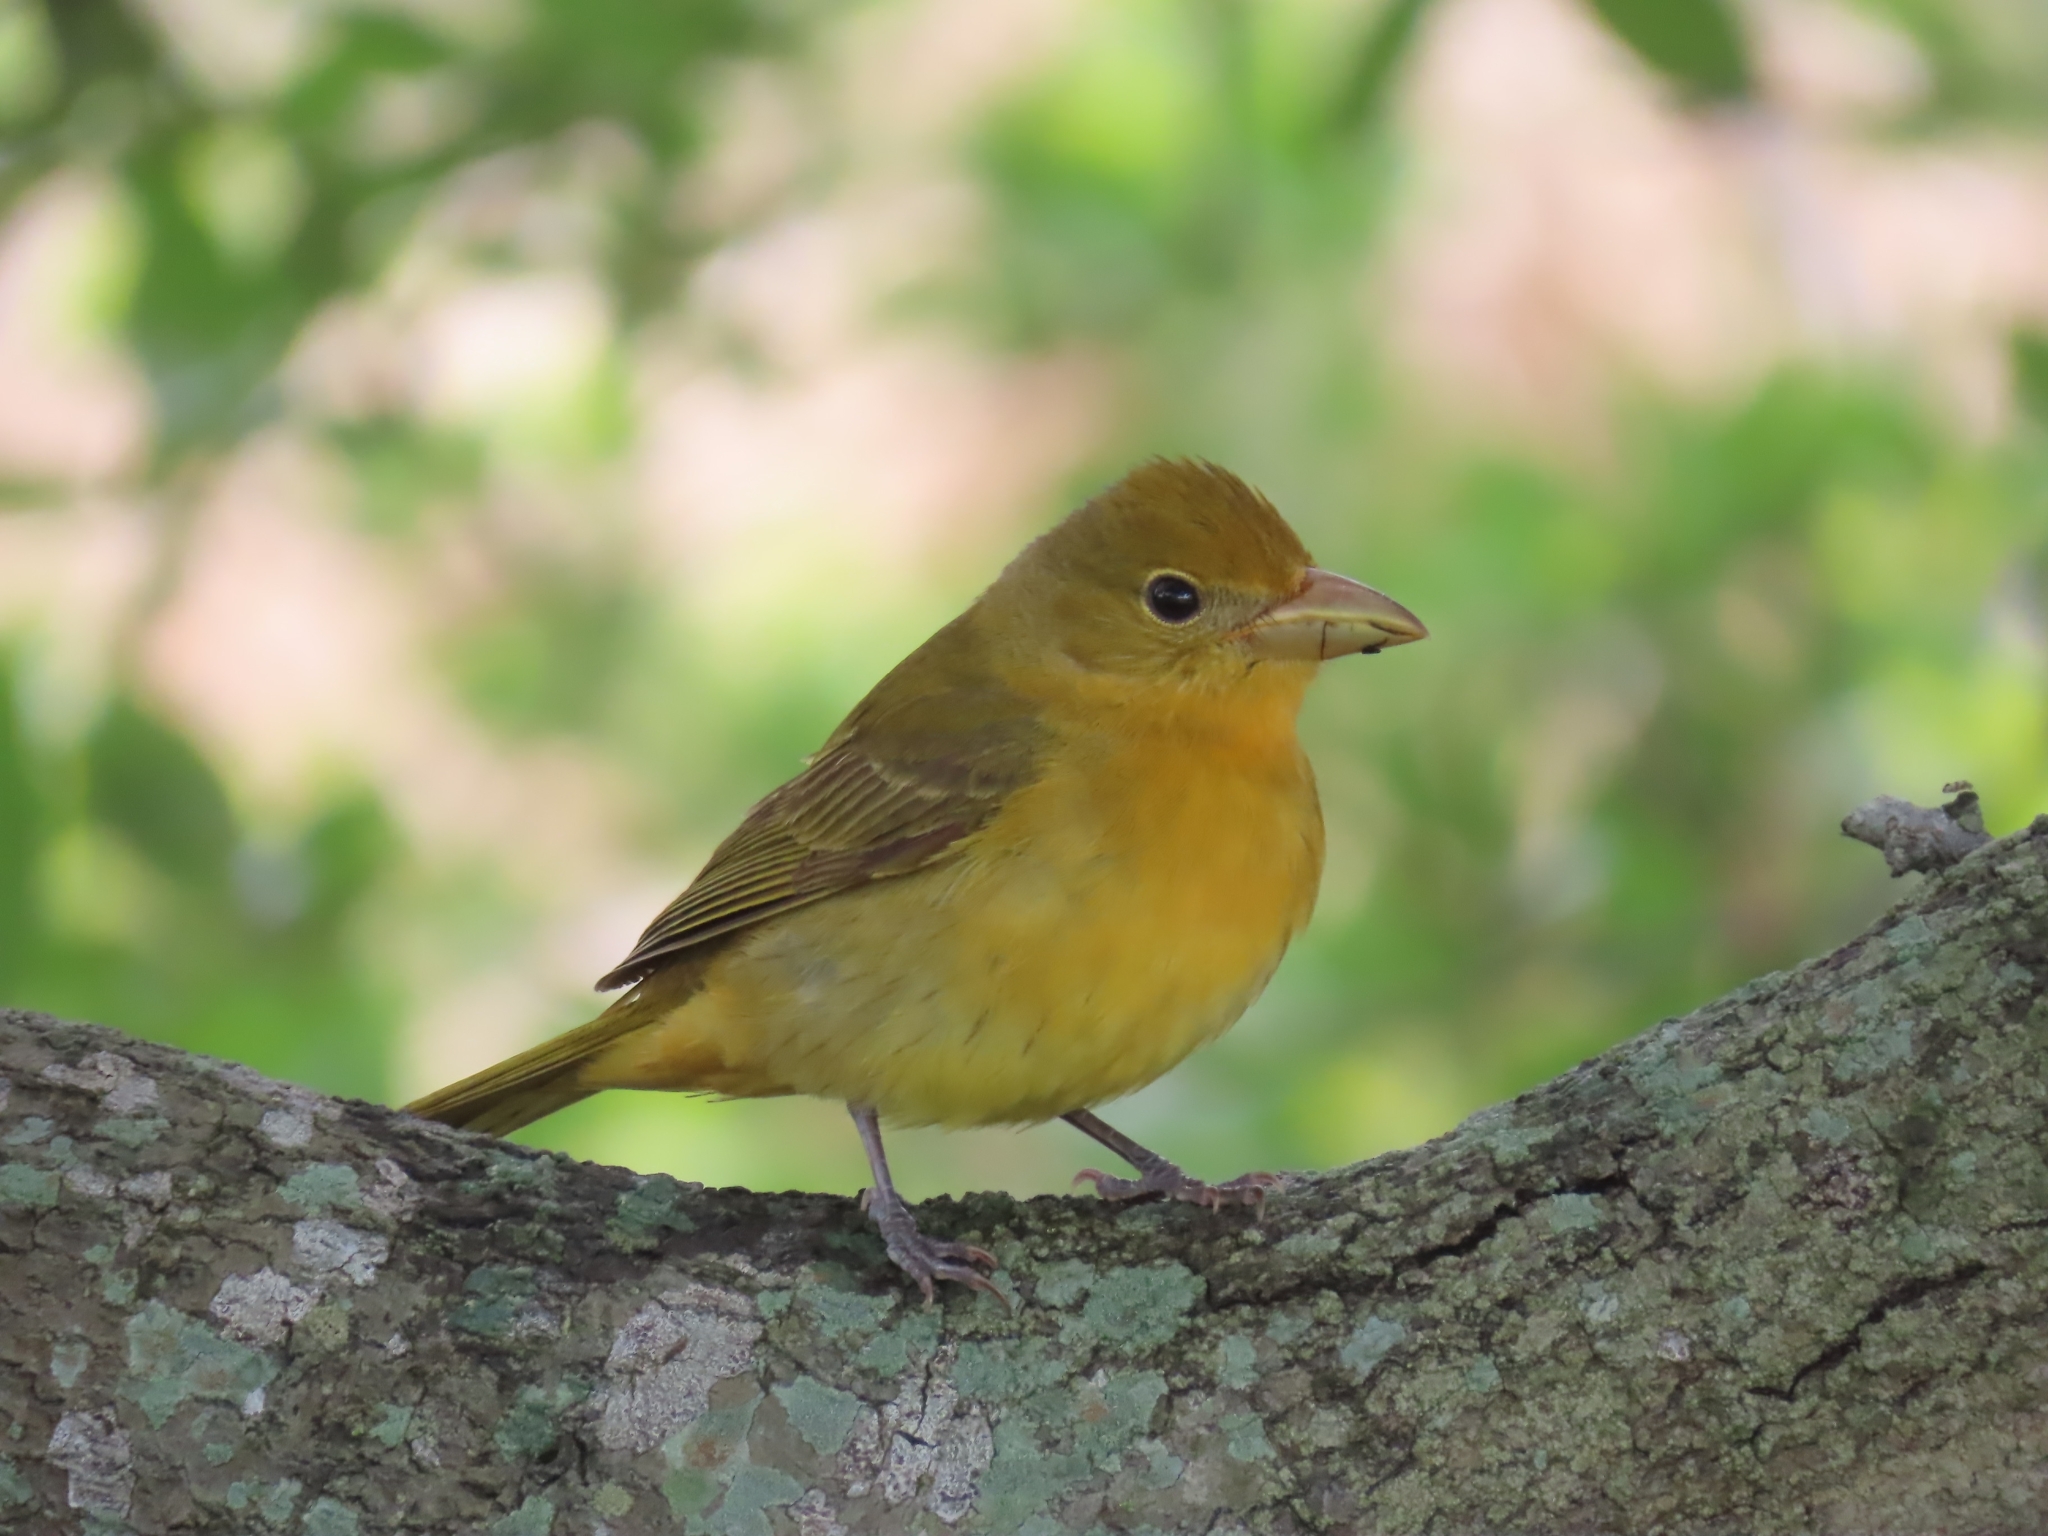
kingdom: Animalia
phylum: Chordata
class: Aves
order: Passeriformes
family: Cardinalidae
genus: Piranga
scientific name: Piranga rubra
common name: Summer tanager
